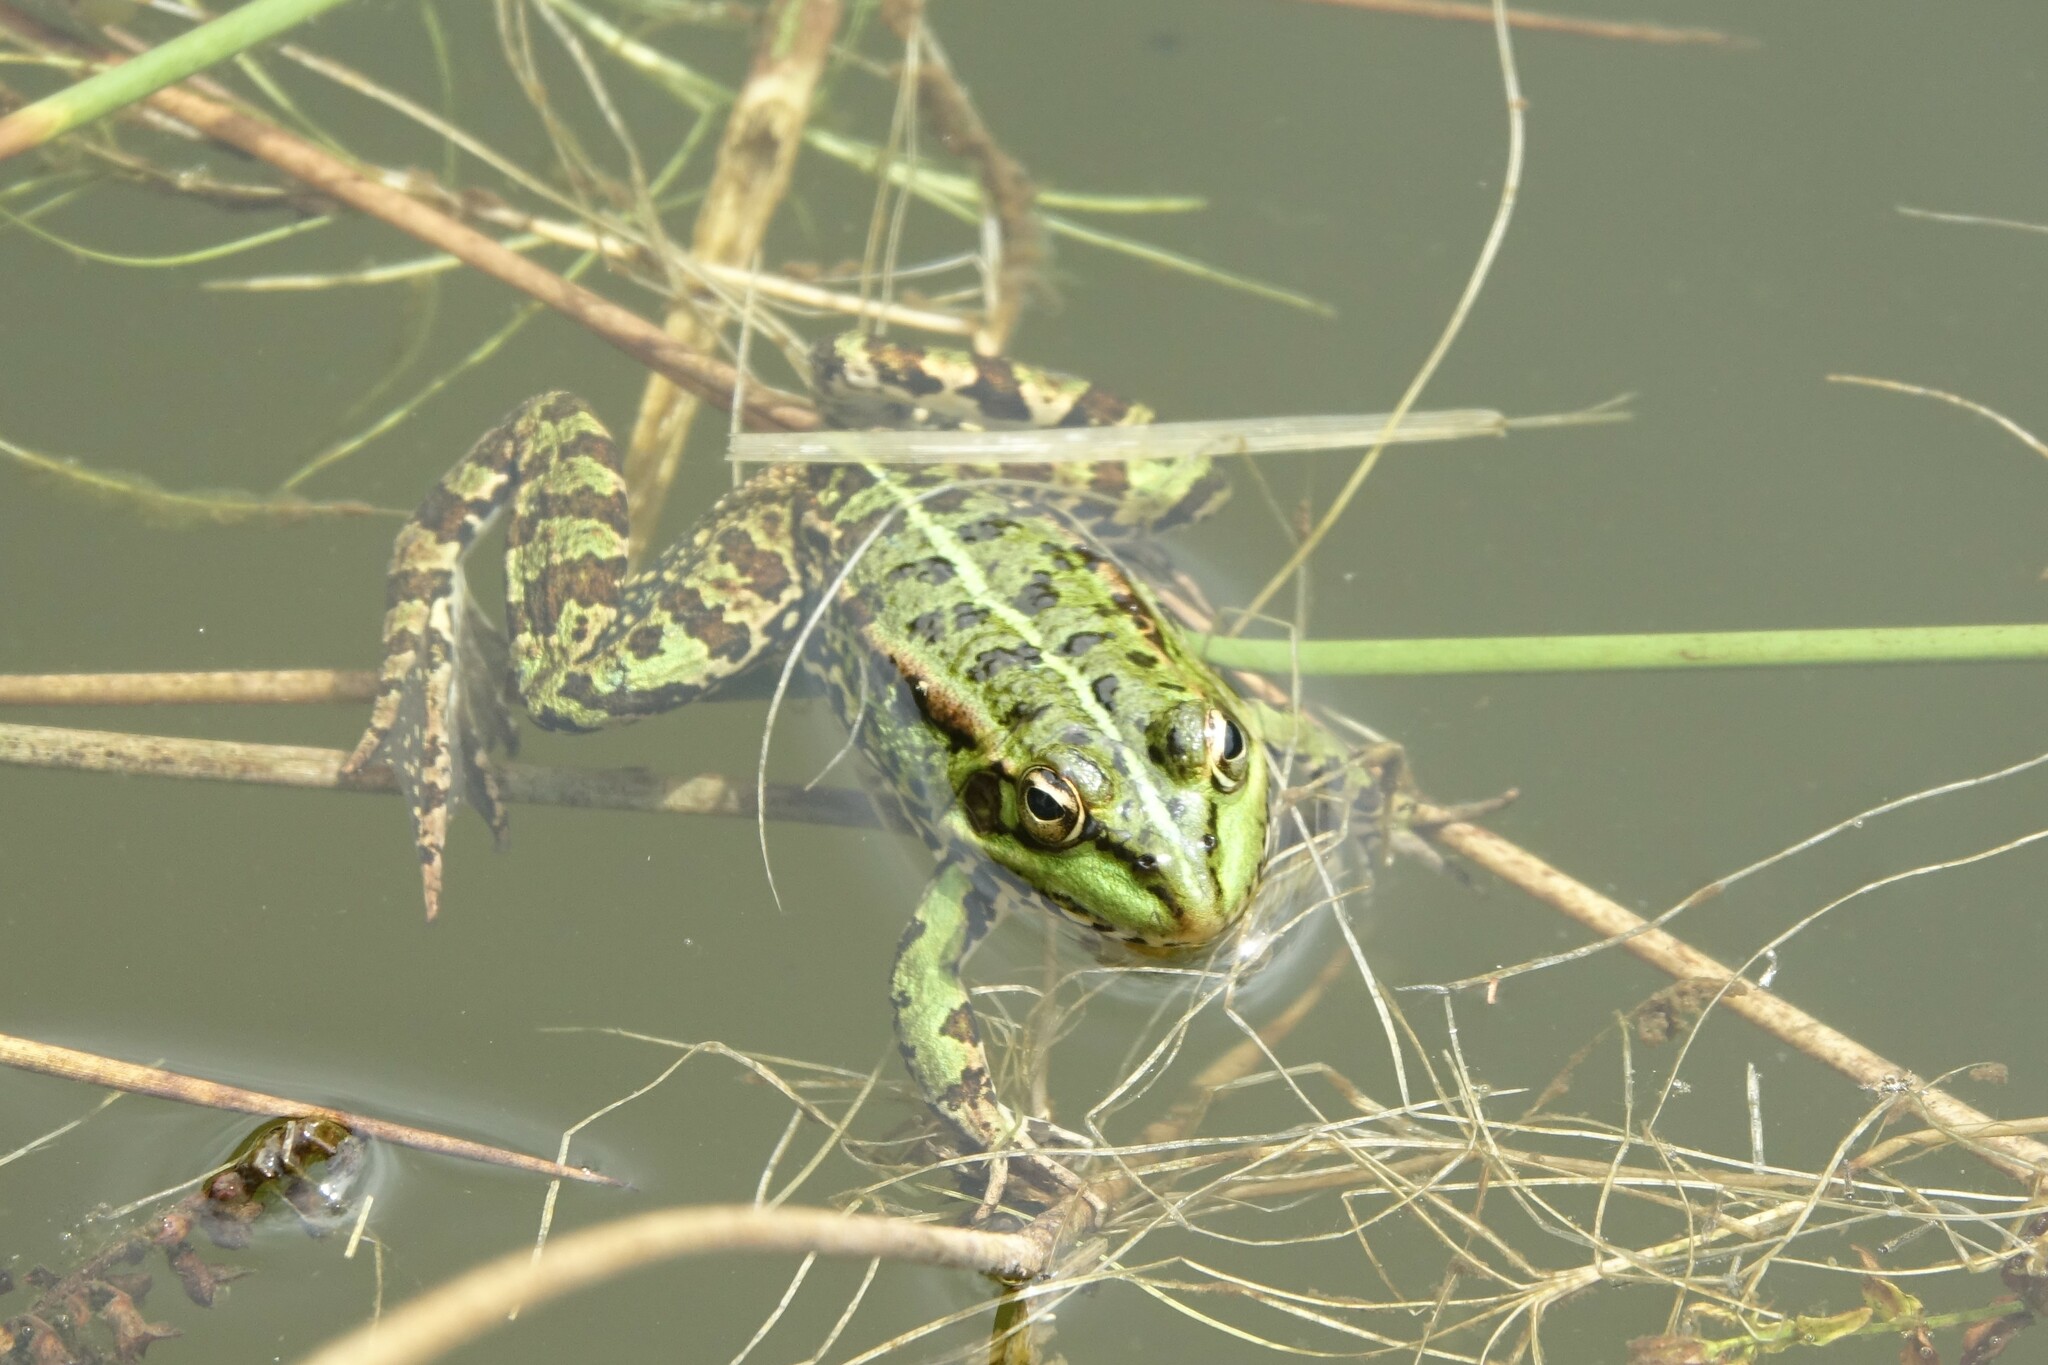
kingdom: Animalia
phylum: Chordata
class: Amphibia
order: Anura
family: Ranidae
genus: Pelophylax
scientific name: Pelophylax perezi
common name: Perez's frog
